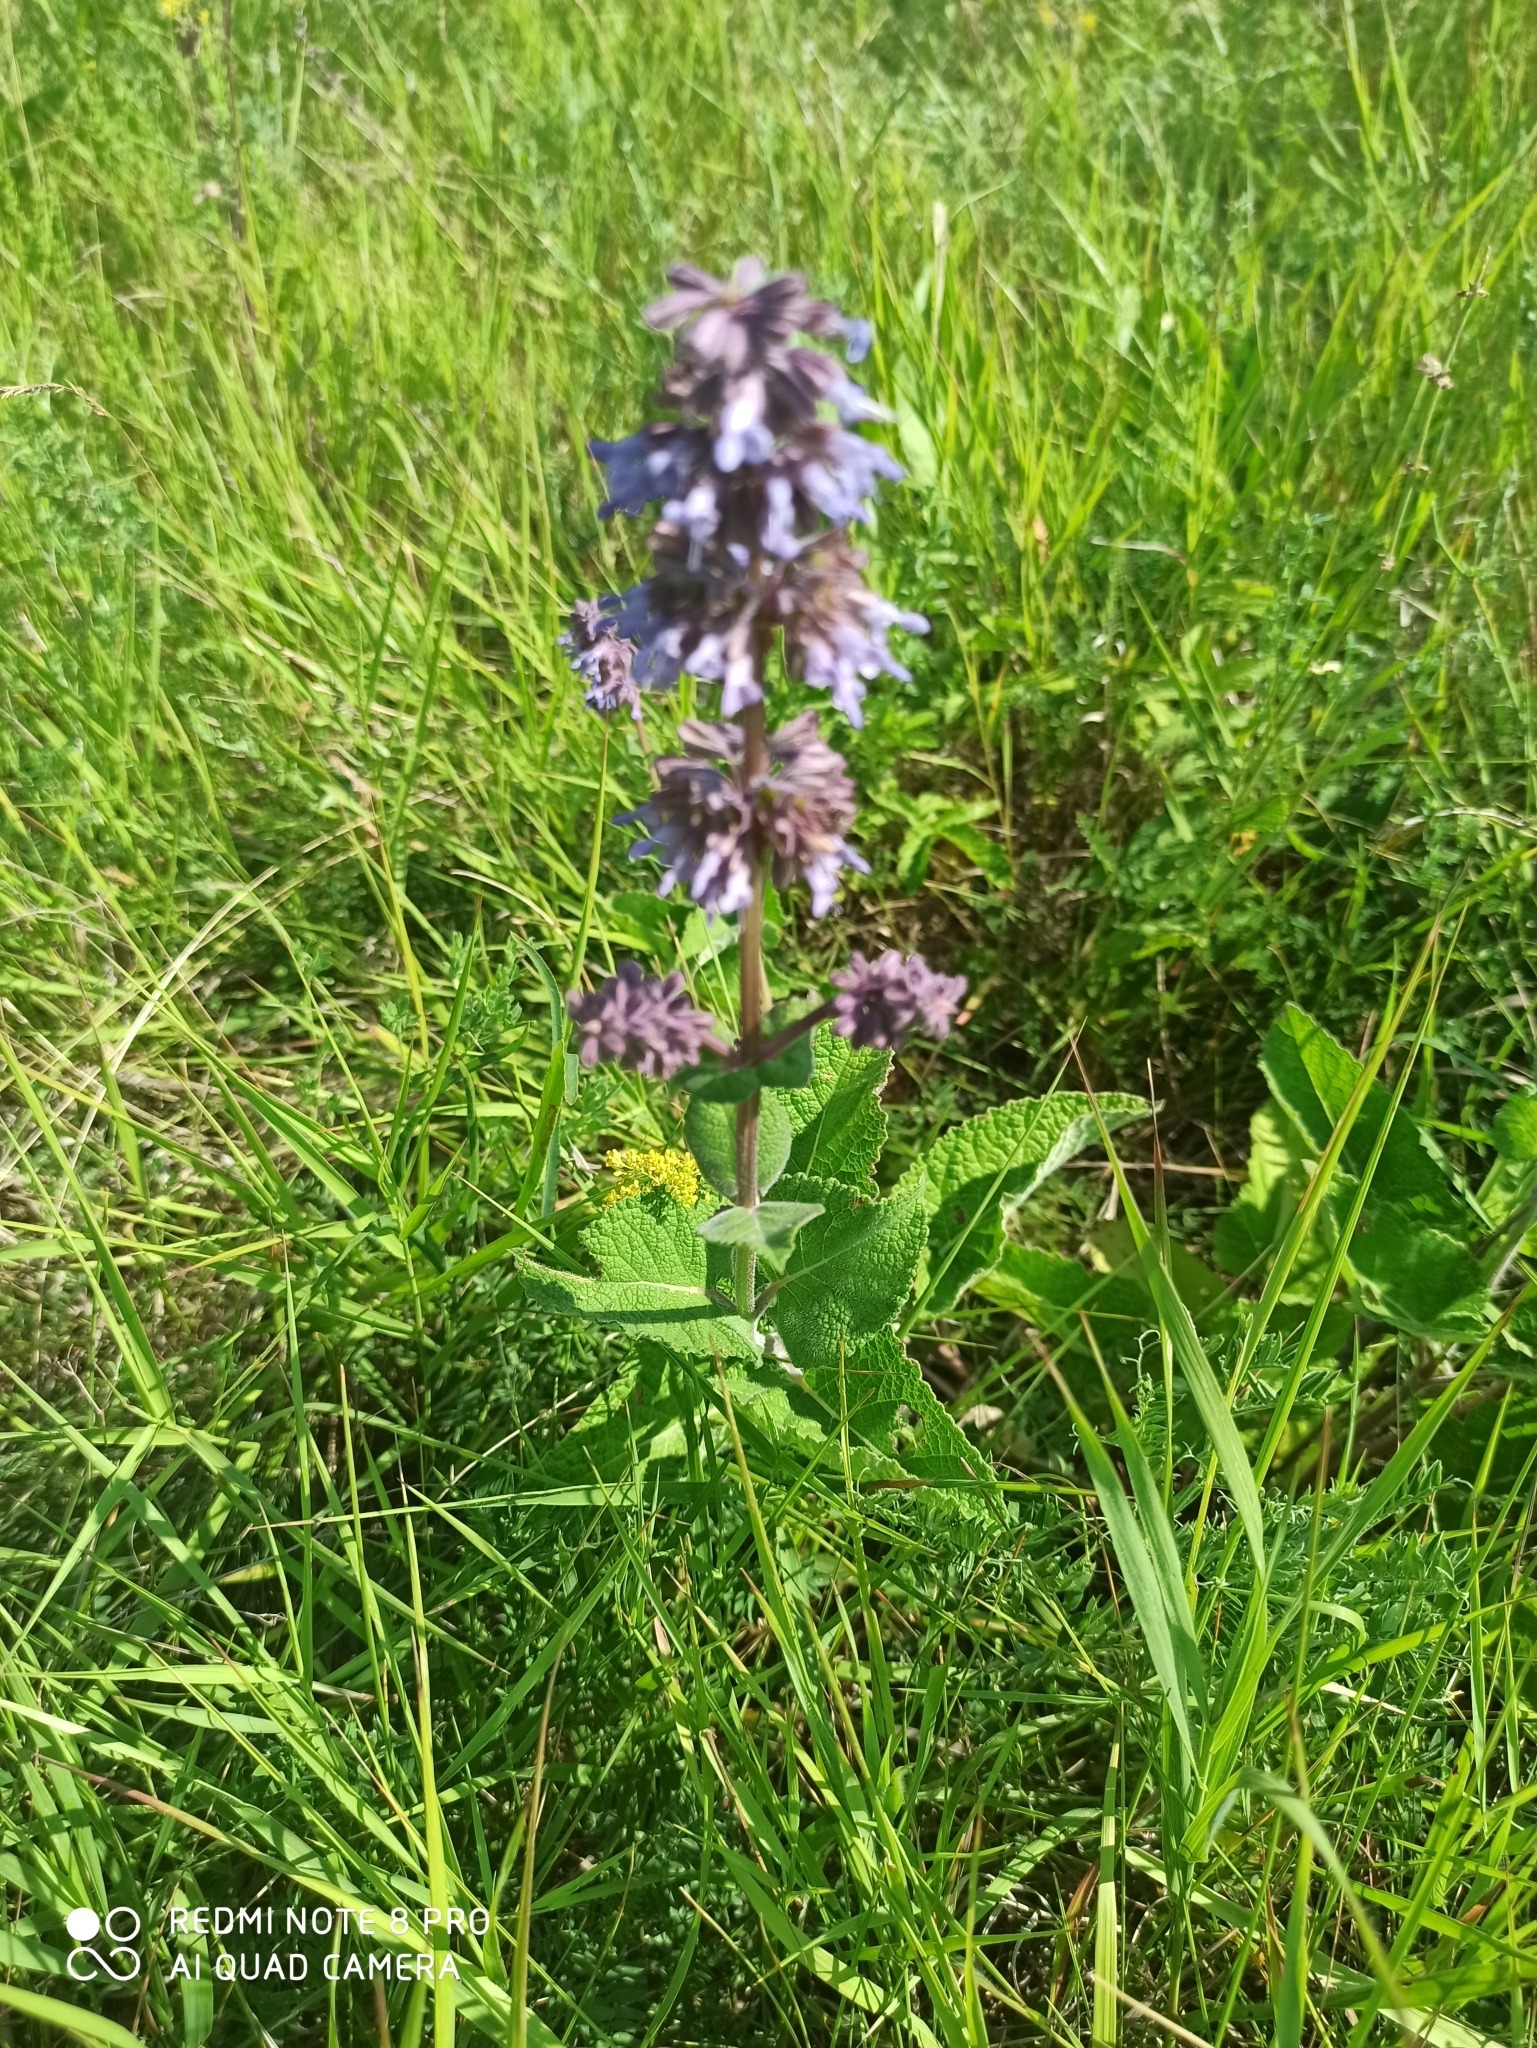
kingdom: Plantae
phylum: Tracheophyta
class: Magnoliopsida
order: Lamiales
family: Lamiaceae
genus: Salvia
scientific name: Salvia verticillata
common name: Whorled clary
